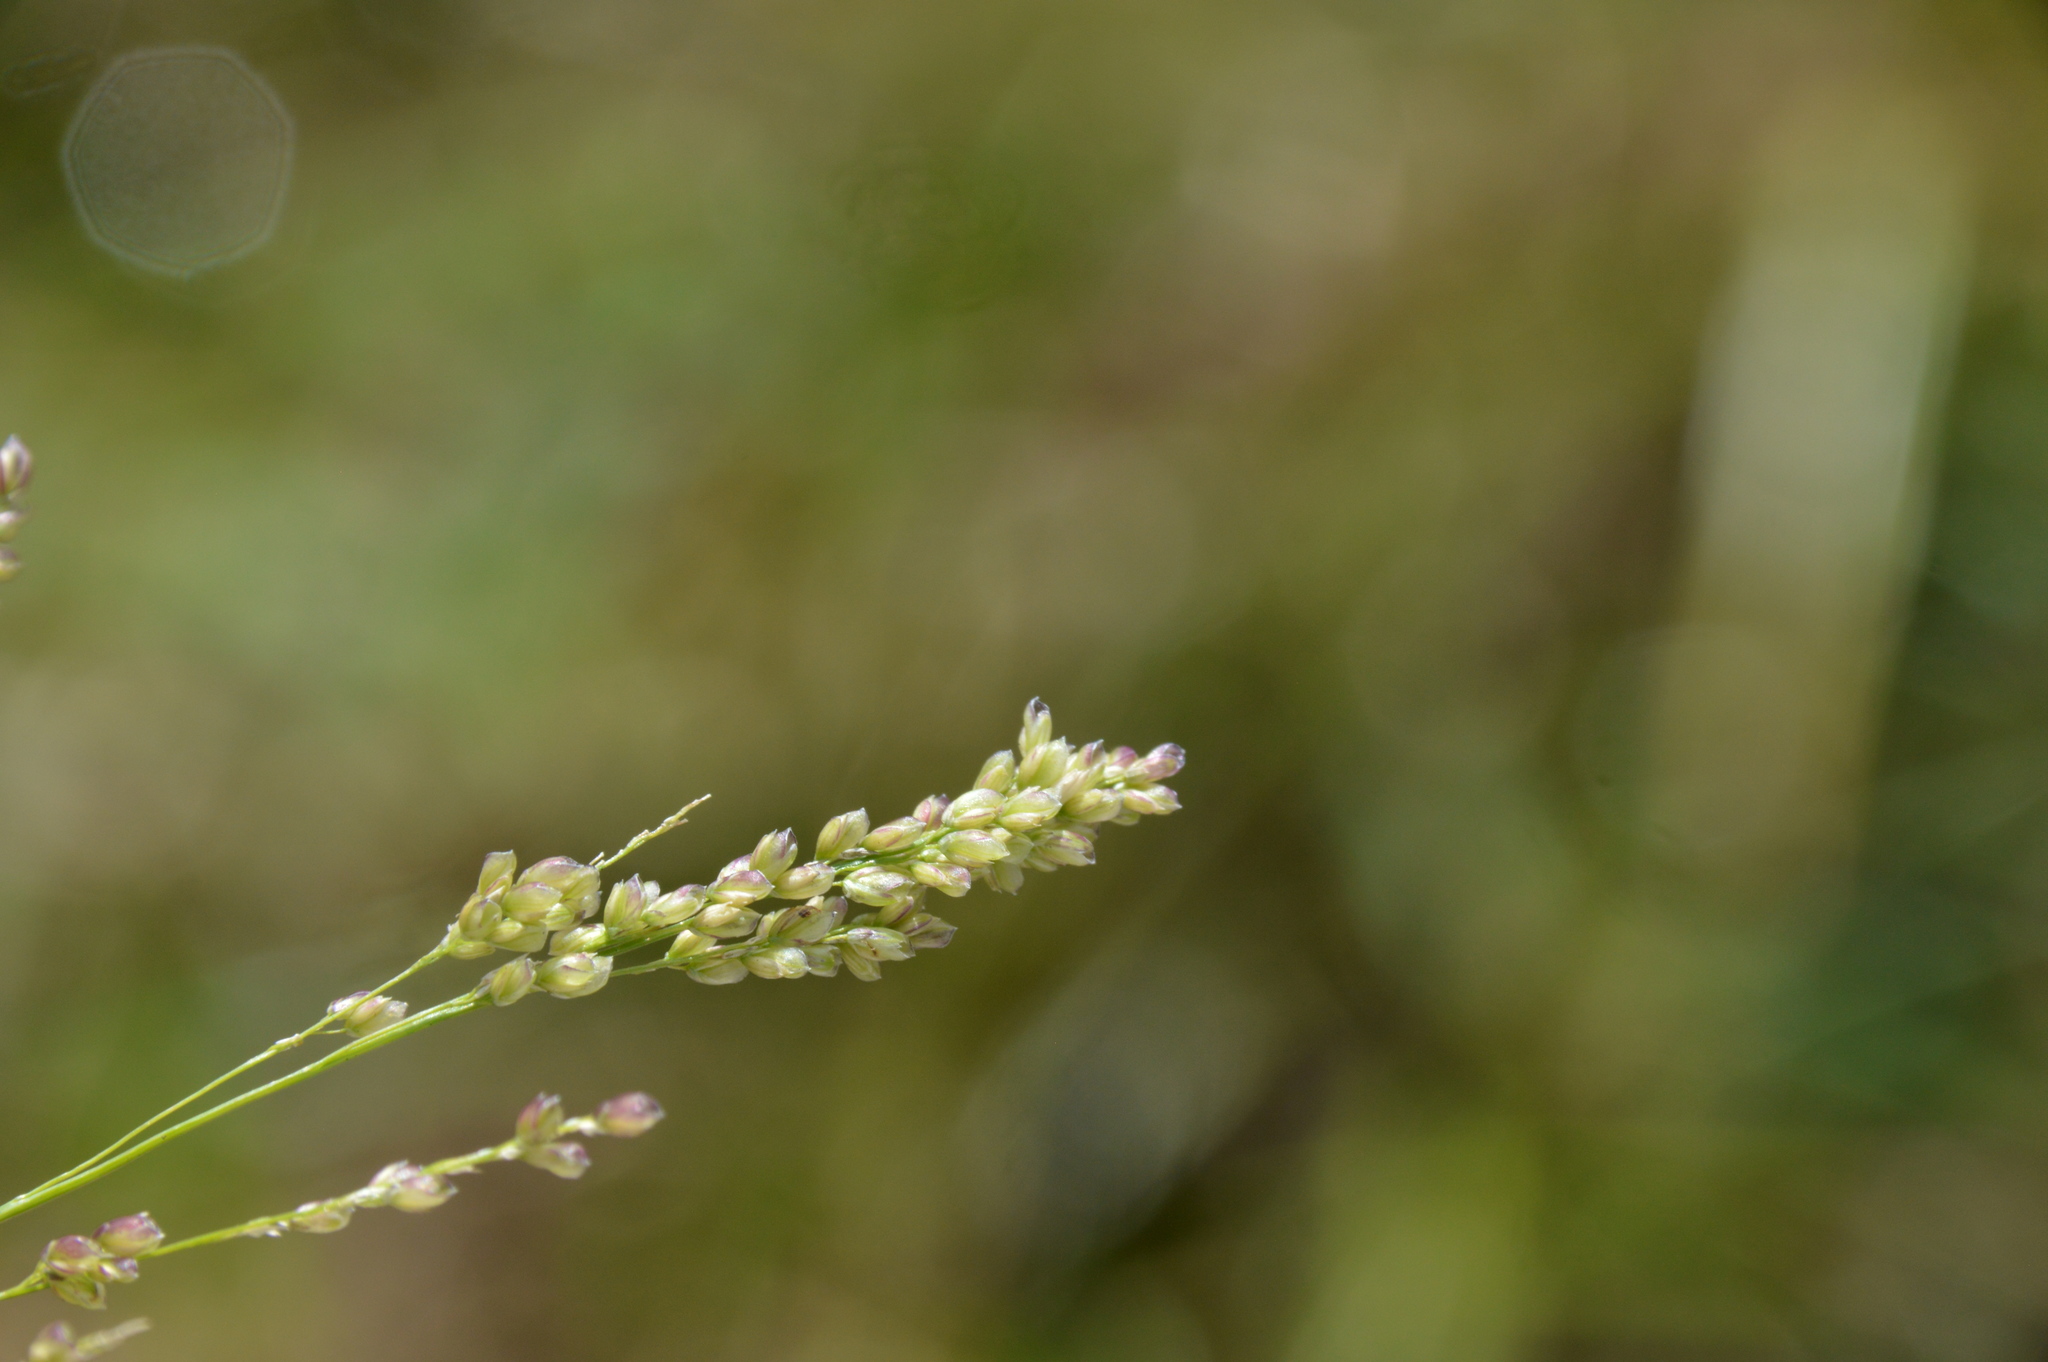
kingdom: Plantae
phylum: Tracheophyta
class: Liliopsida
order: Poales
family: Poaceae
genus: Steinchisma
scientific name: Steinchisma hians
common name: Gaping panic grass
